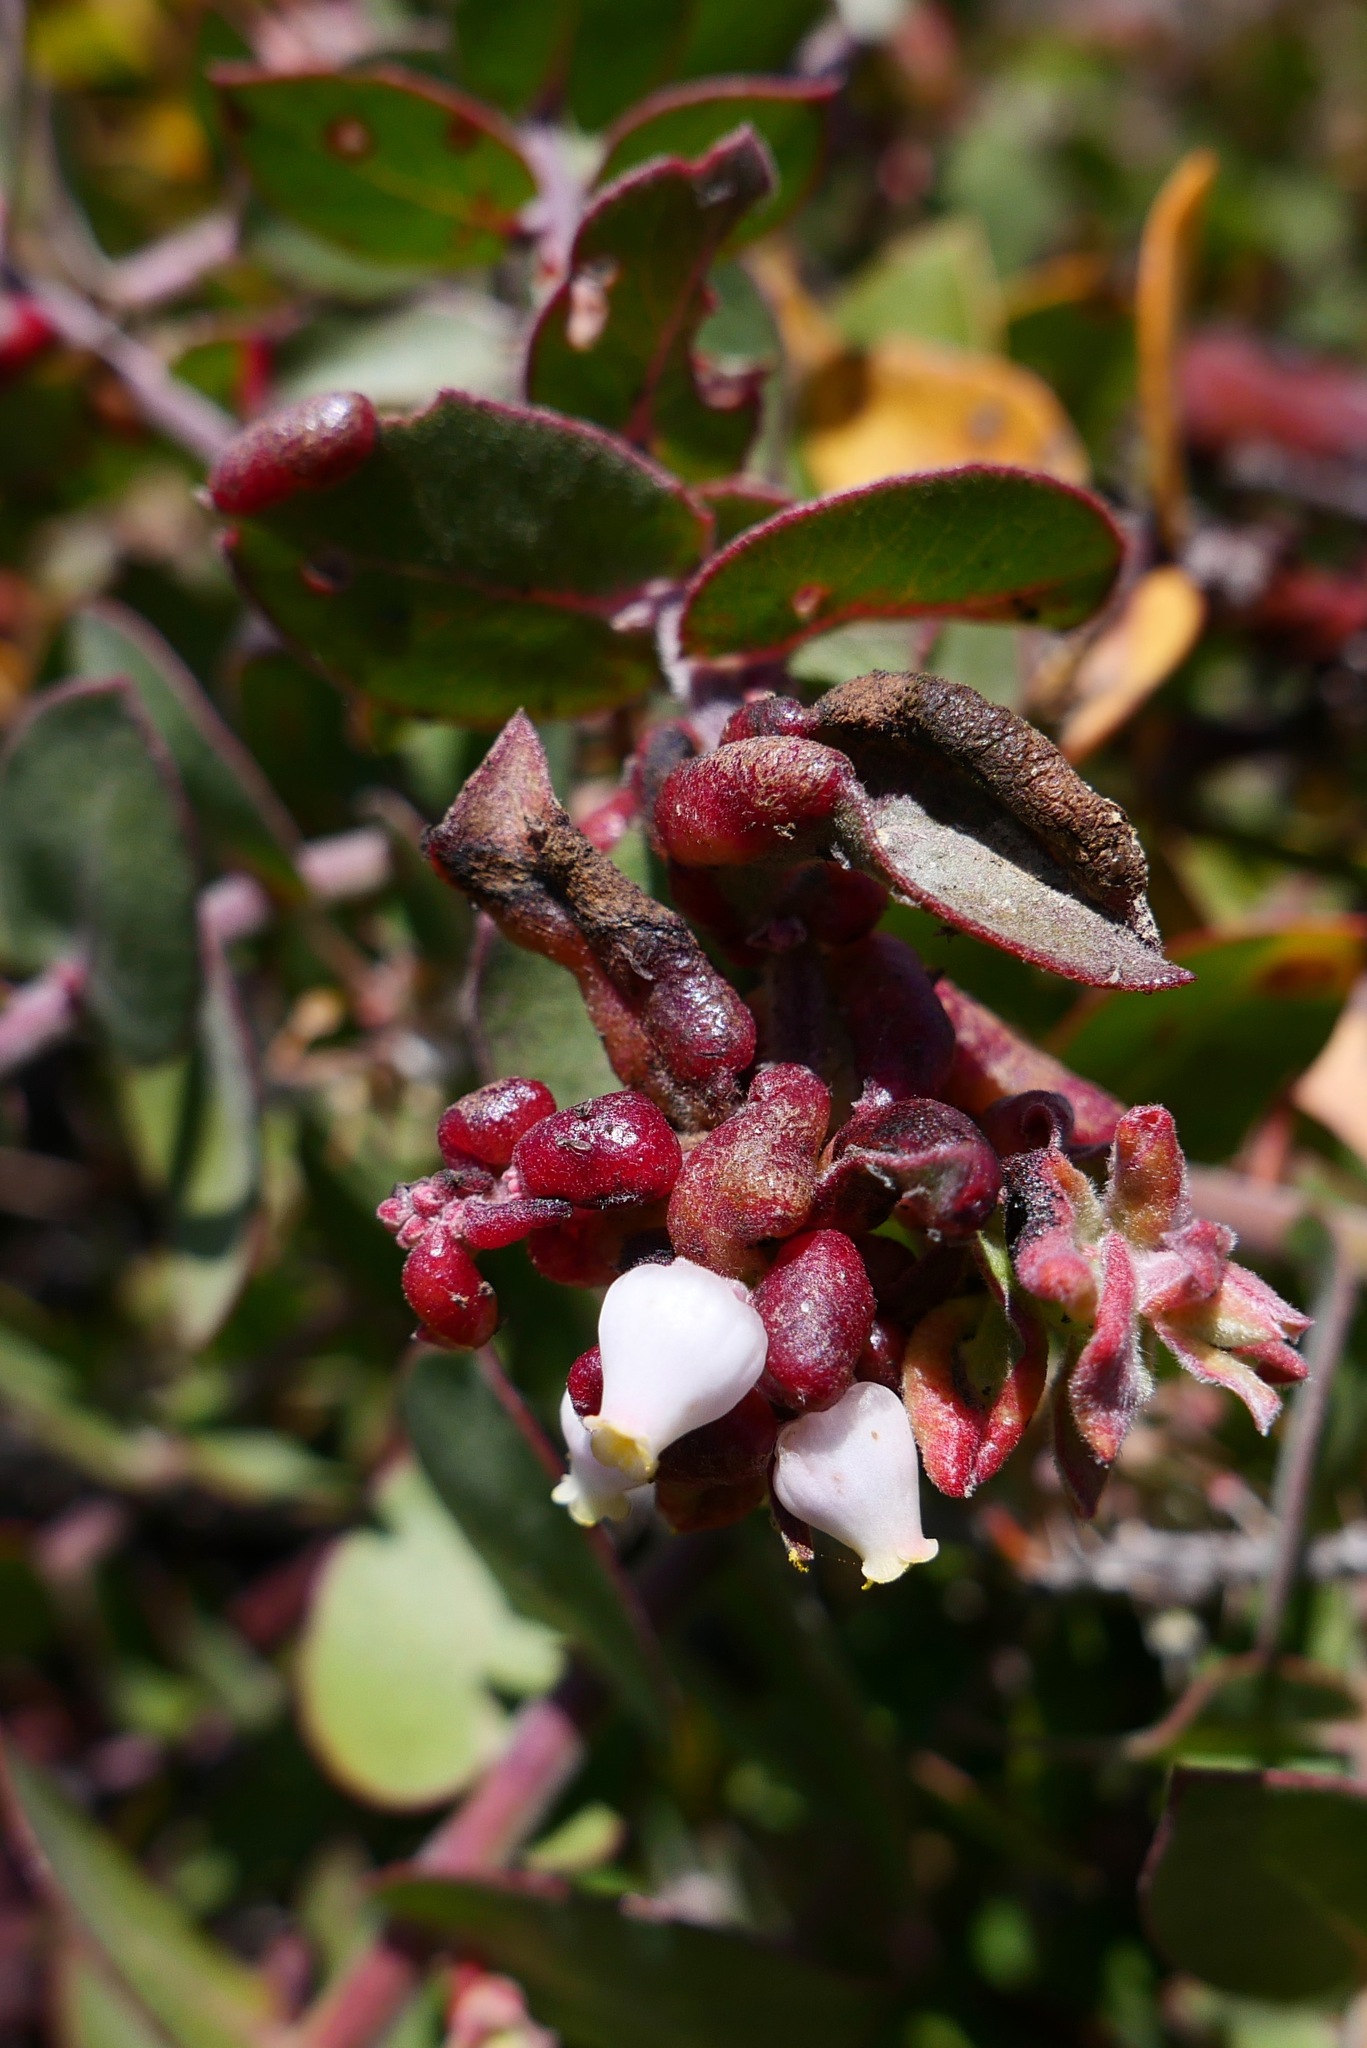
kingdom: Animalia
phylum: Arthropoda
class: Insecta
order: Hemiptera
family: Aphididae
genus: Tamalia
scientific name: Tamalia coweni
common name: Manzanita leafgall aphid
